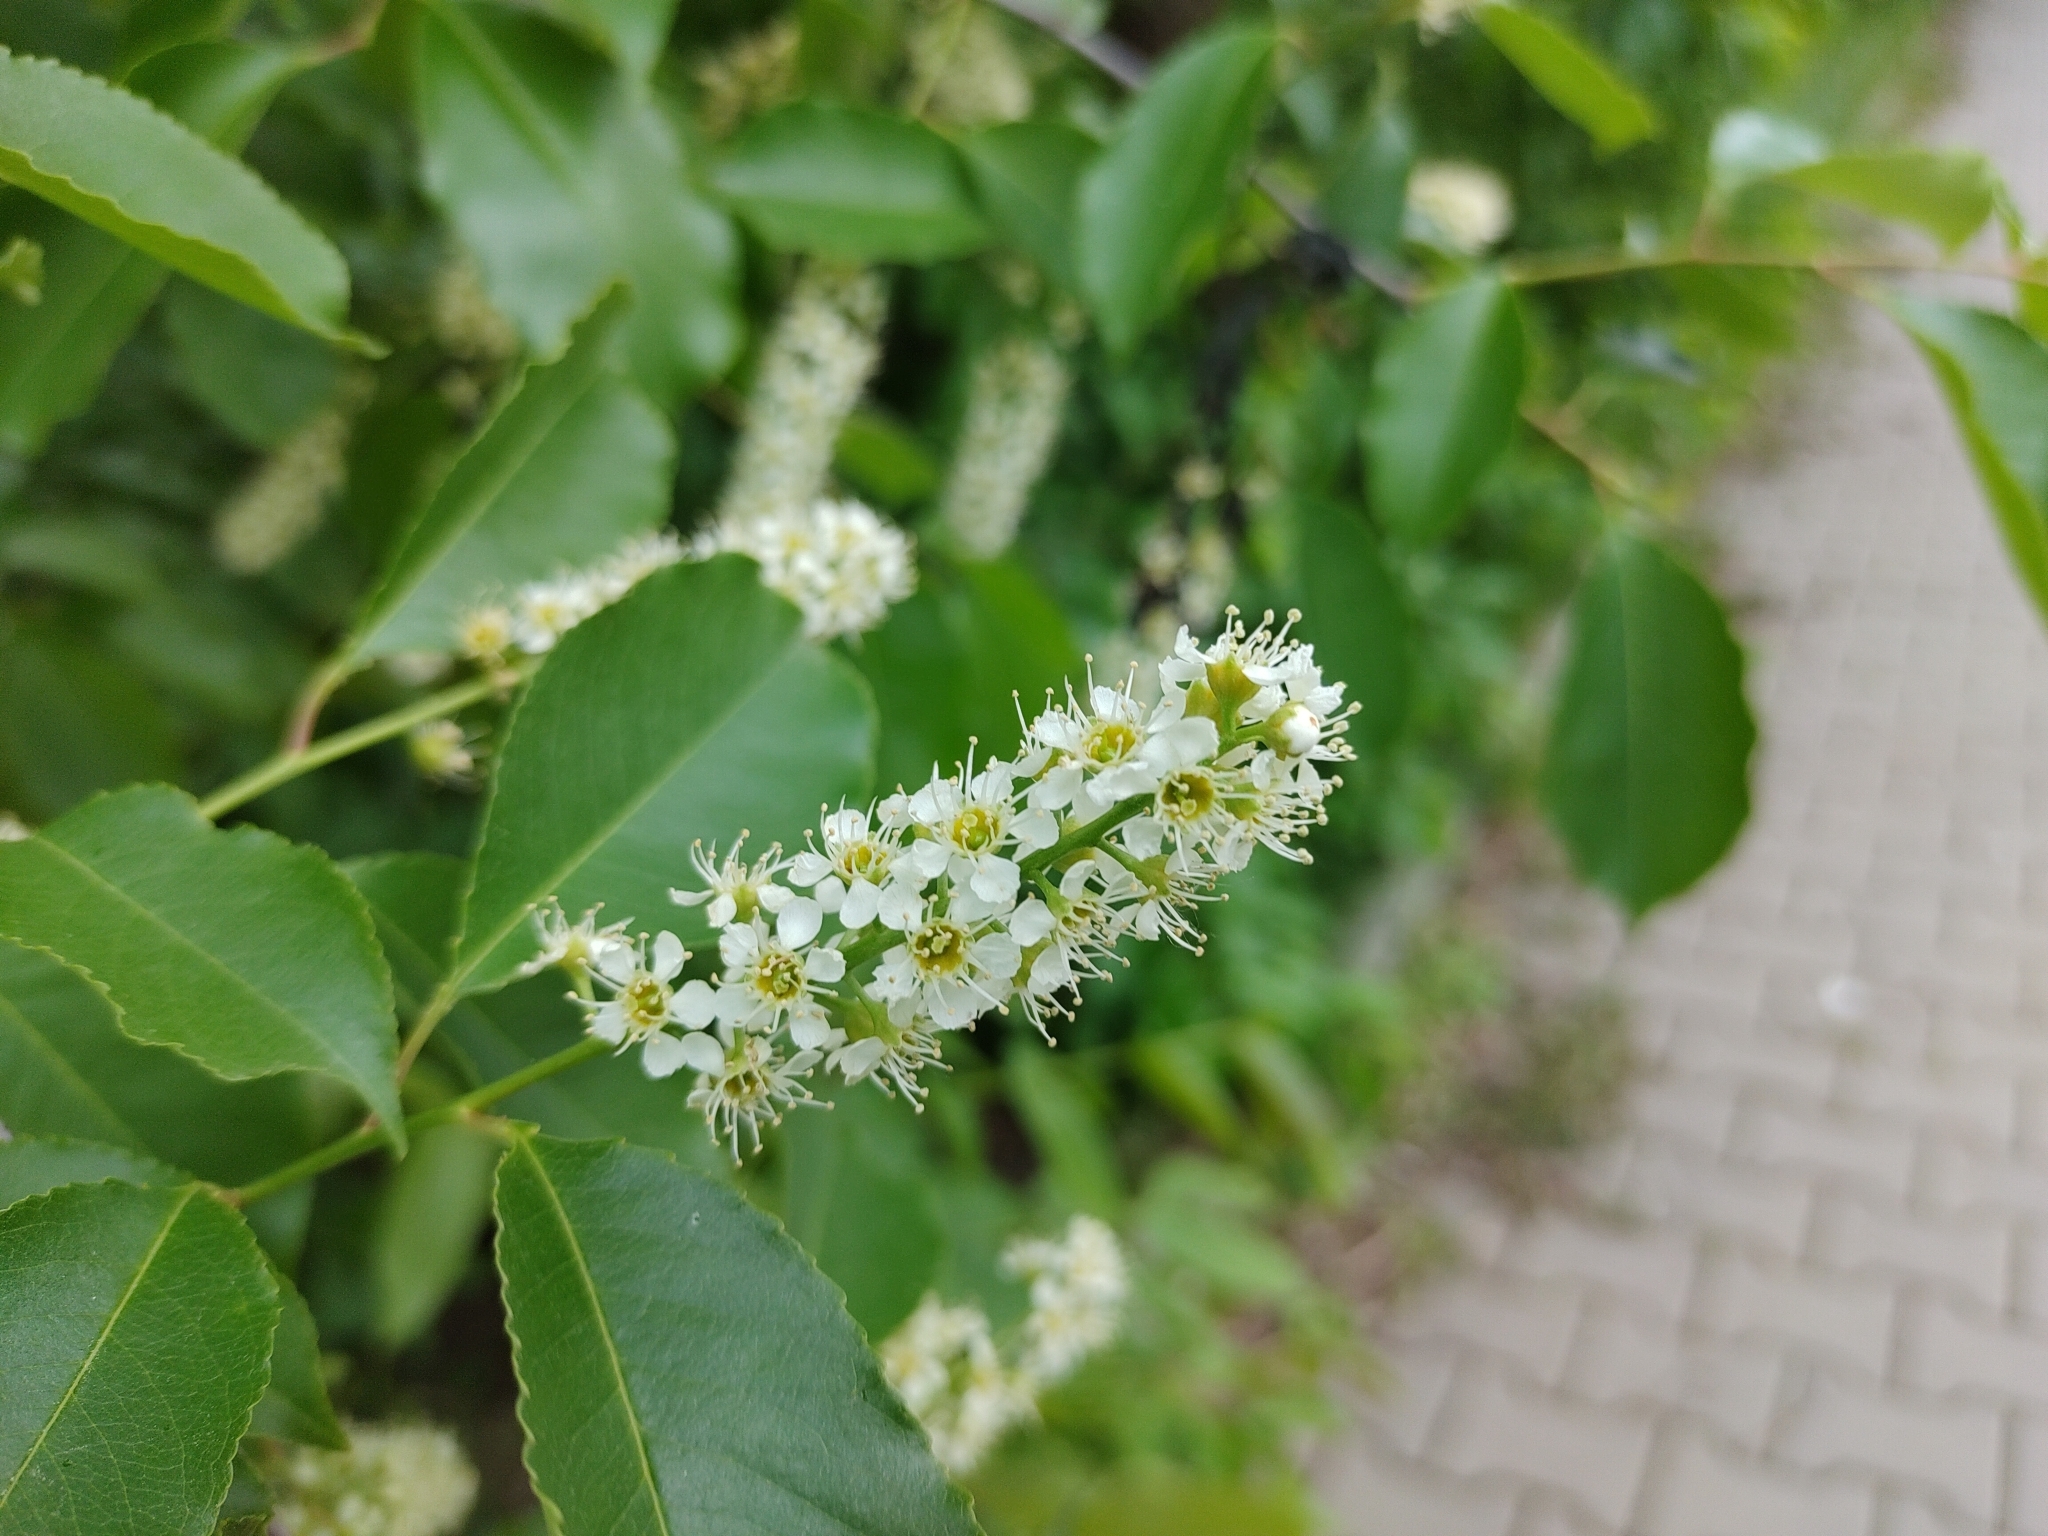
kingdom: Plantae
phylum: Tracheophyta
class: Magnoliopsida
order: Rosales
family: Rosaceae
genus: Prunus
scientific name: Prunus serotina
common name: Black cherry
